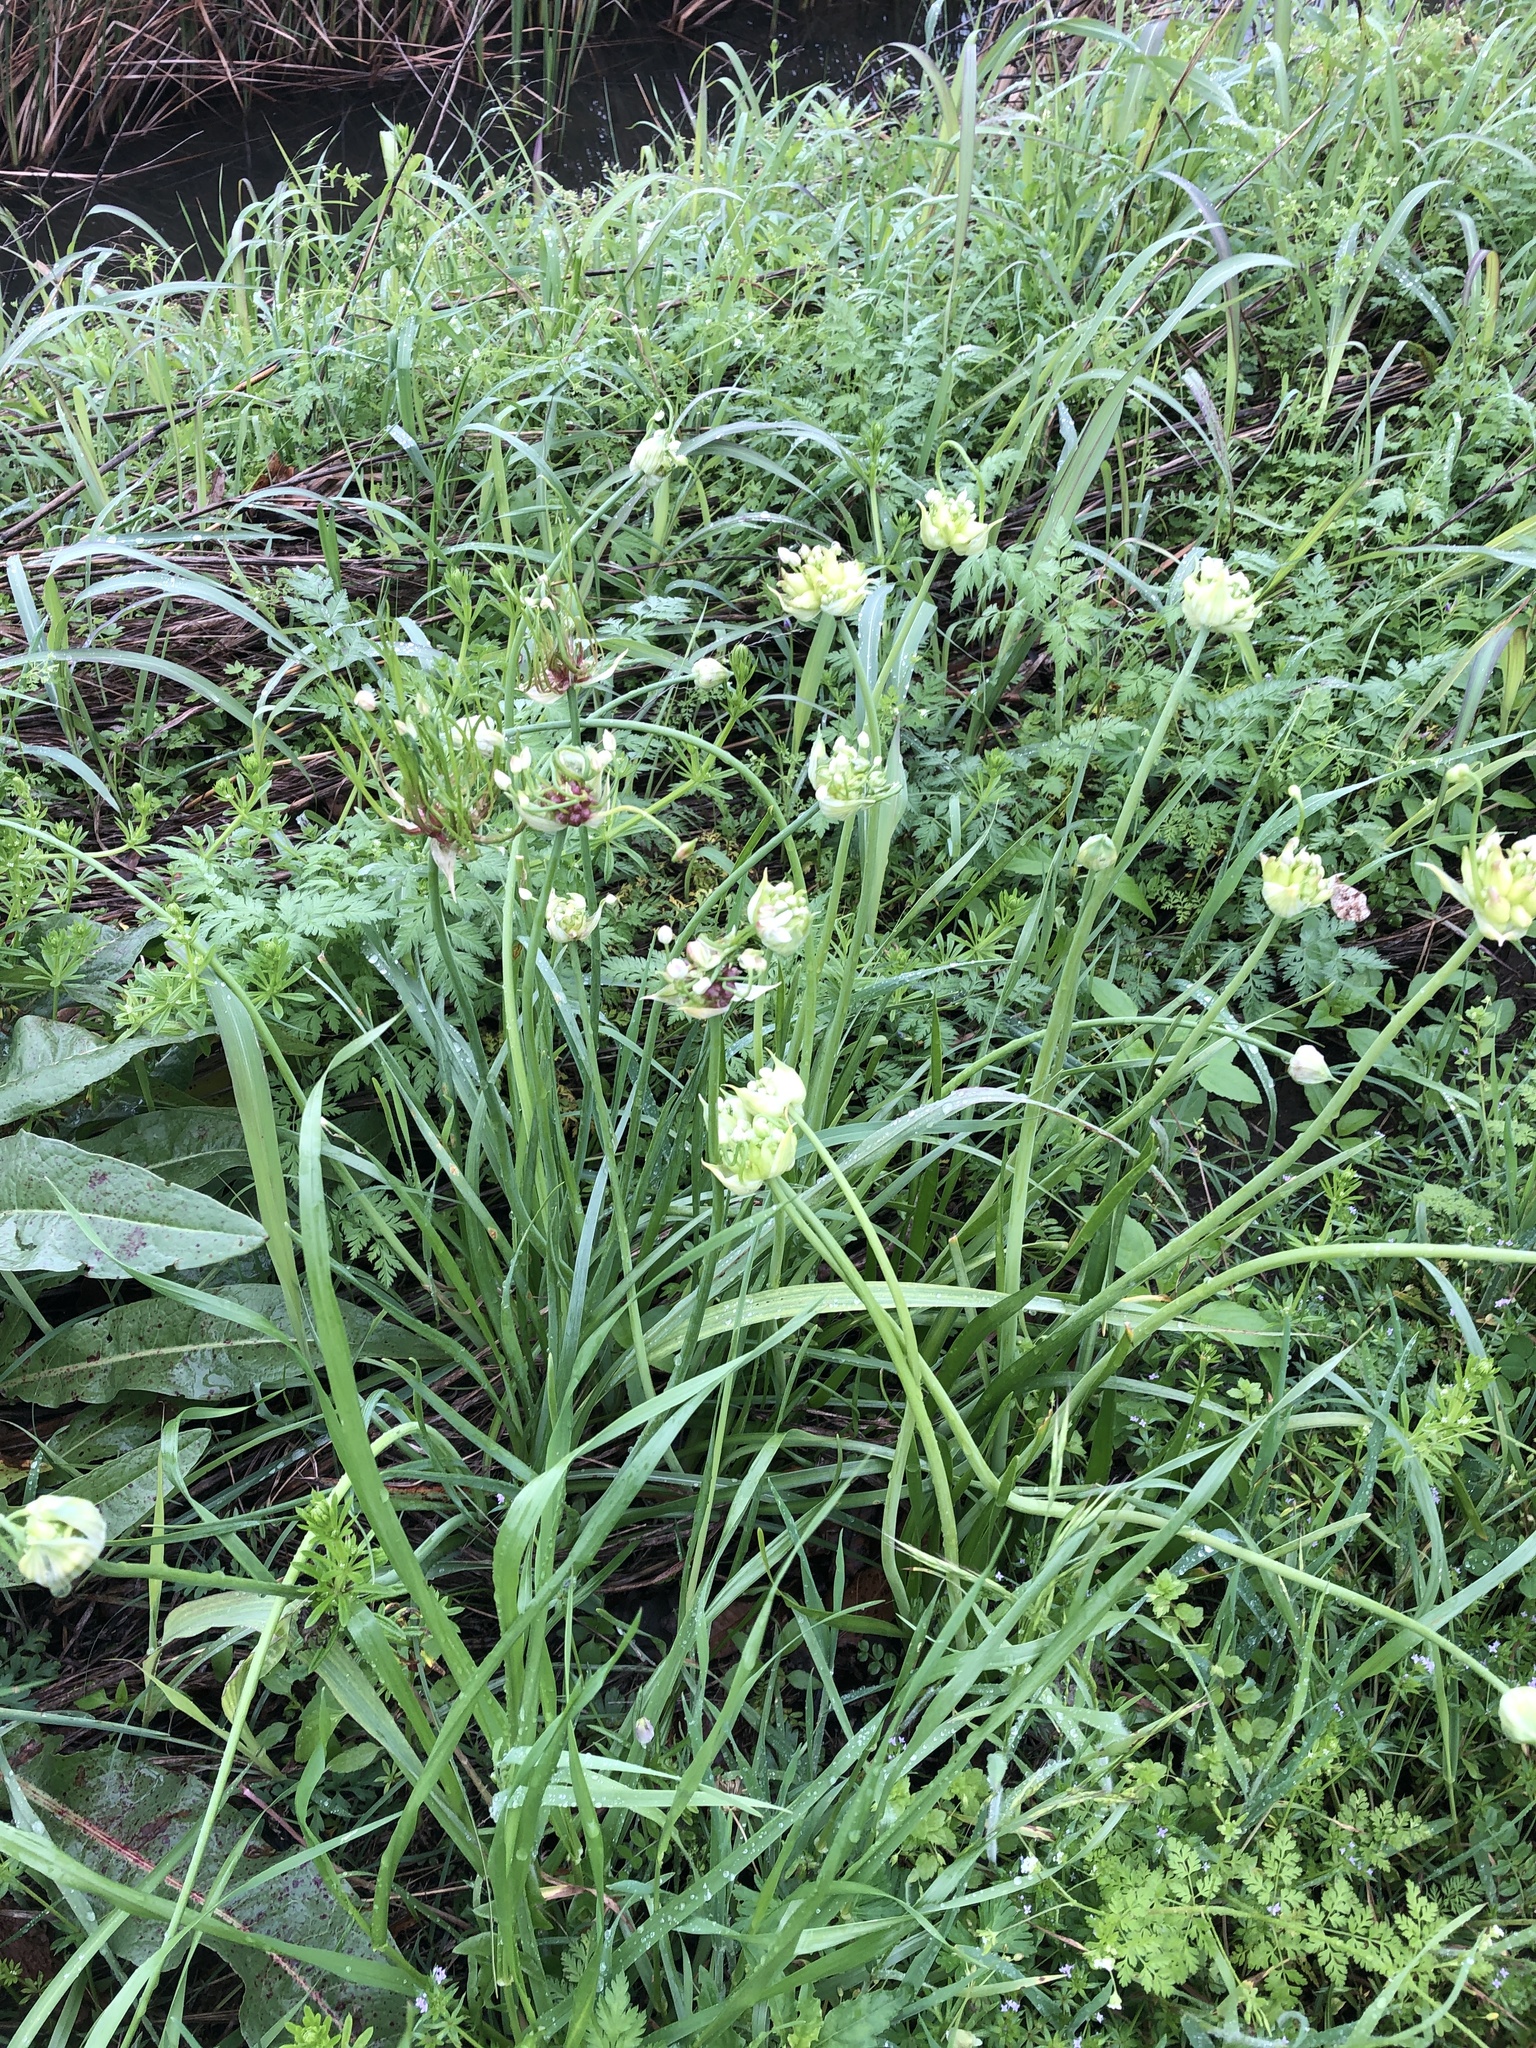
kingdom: Plantae
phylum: Tracheophyta
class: Liliopsida
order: Asparagales
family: Amaryllidaceae
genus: Allium
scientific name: Allium canadense
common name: Meadow garlic
